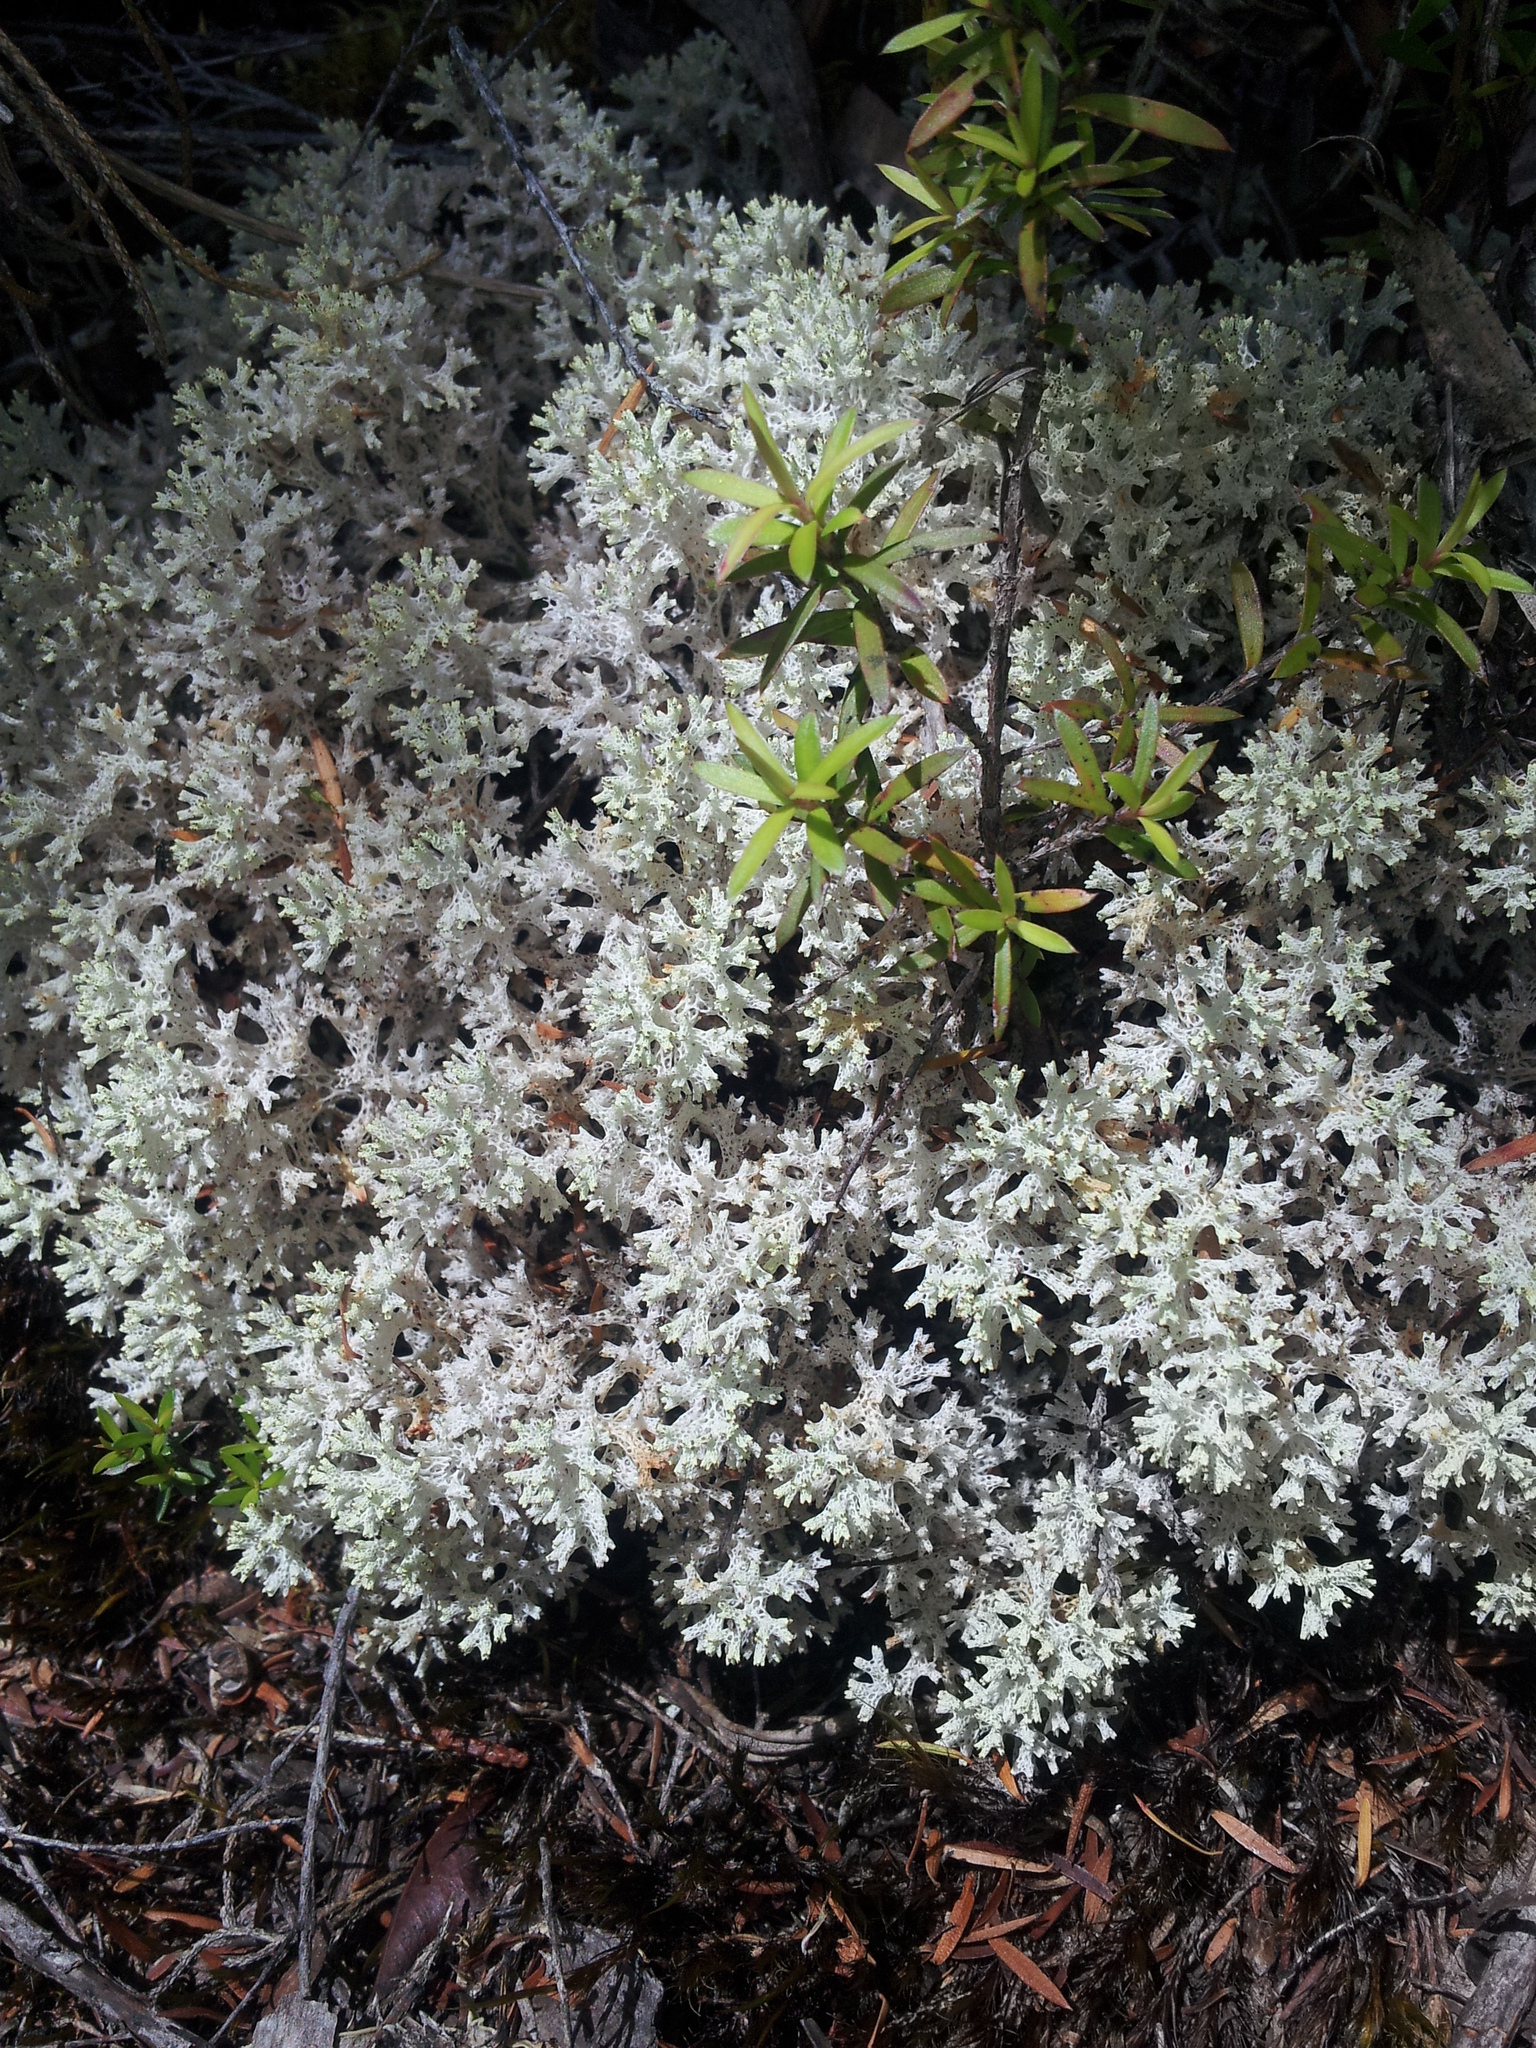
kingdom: Fungi
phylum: Ascomycota
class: Lecanoromycetes
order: Lecanorales
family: Cladoniaceae
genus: Pulchrocladia
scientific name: Pulchrocladia retipora
